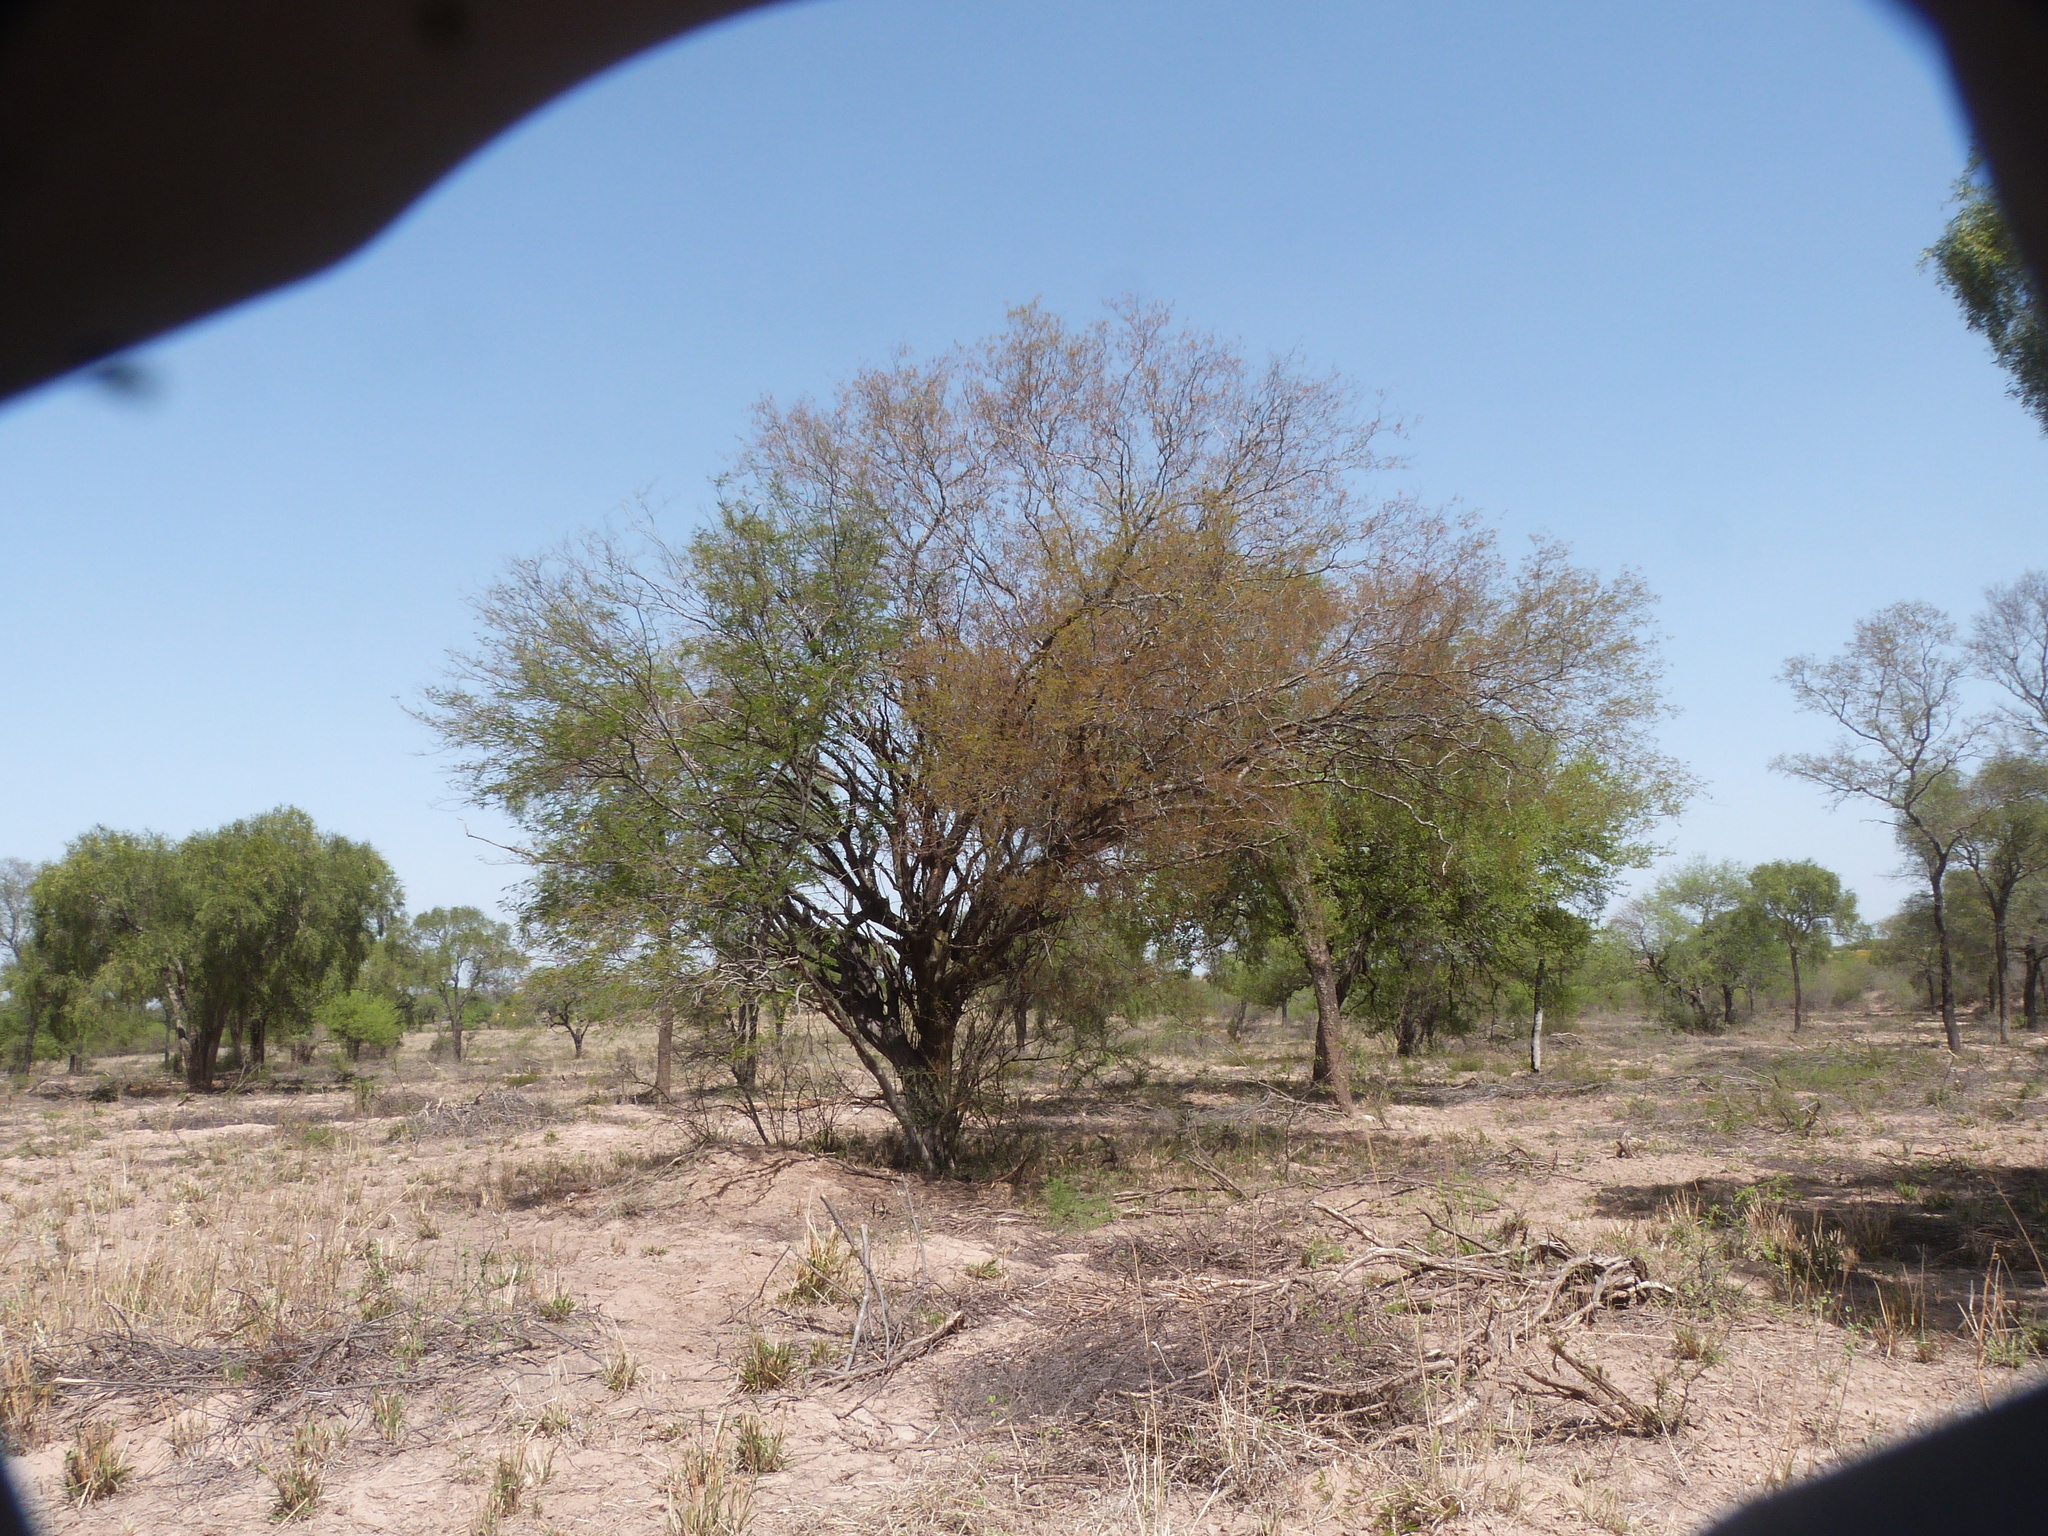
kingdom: Plantae
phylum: Tracheophyta
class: Magnoliopsida
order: Fabales
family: Fabaceae
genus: Libidibia
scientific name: Libidibia paraguariensis
